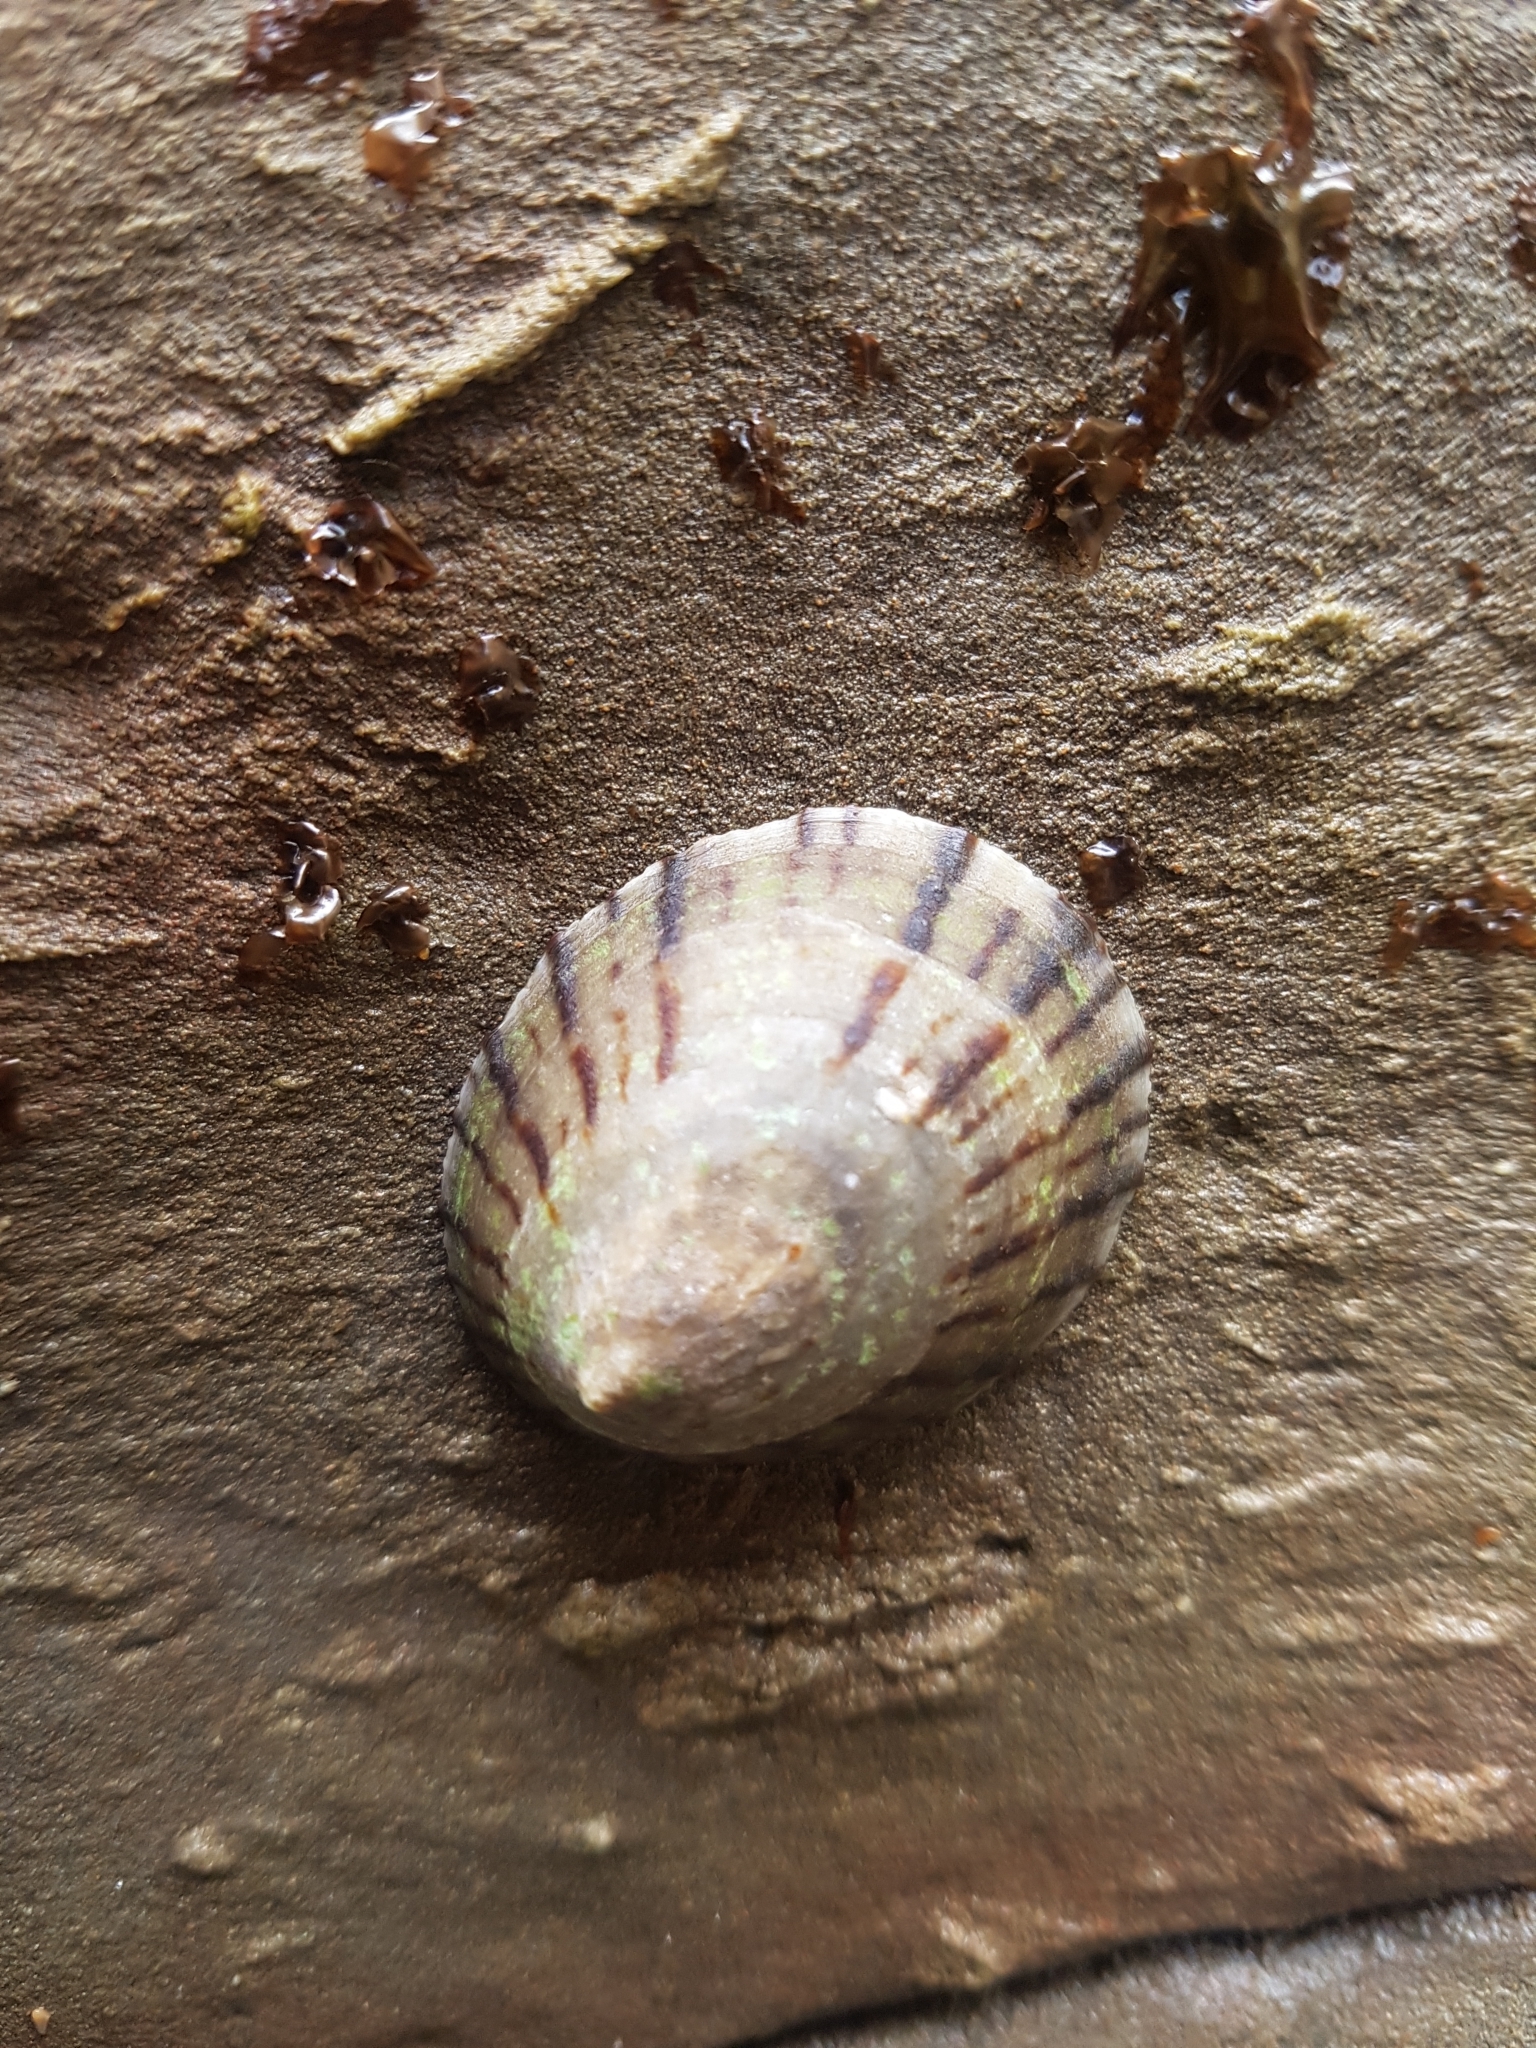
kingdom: Animalia
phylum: Mollusca
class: Gastropoda
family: Nacellidae
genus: Cellana
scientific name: Cellana radians
